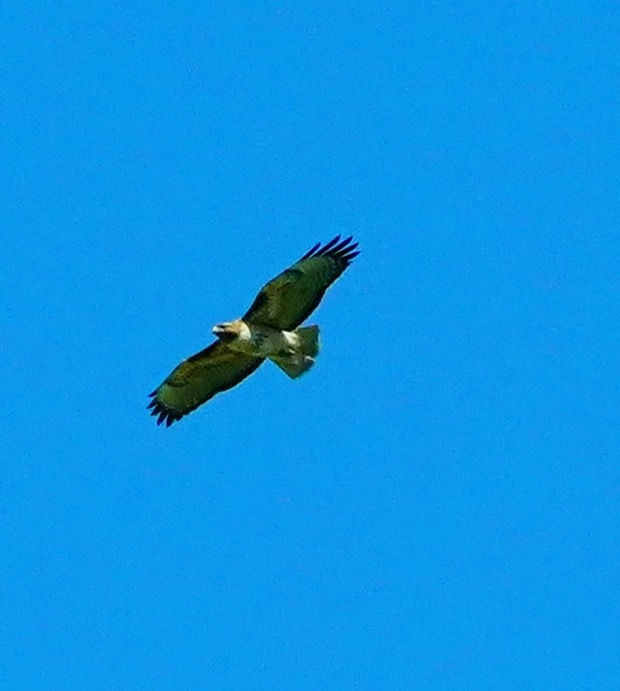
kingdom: Animalia
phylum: Chordata
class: Aves
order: Accipitriformes
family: Accipitridae
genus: Buteo
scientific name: Buteo jamaicensis
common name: Red-tailed hawk
